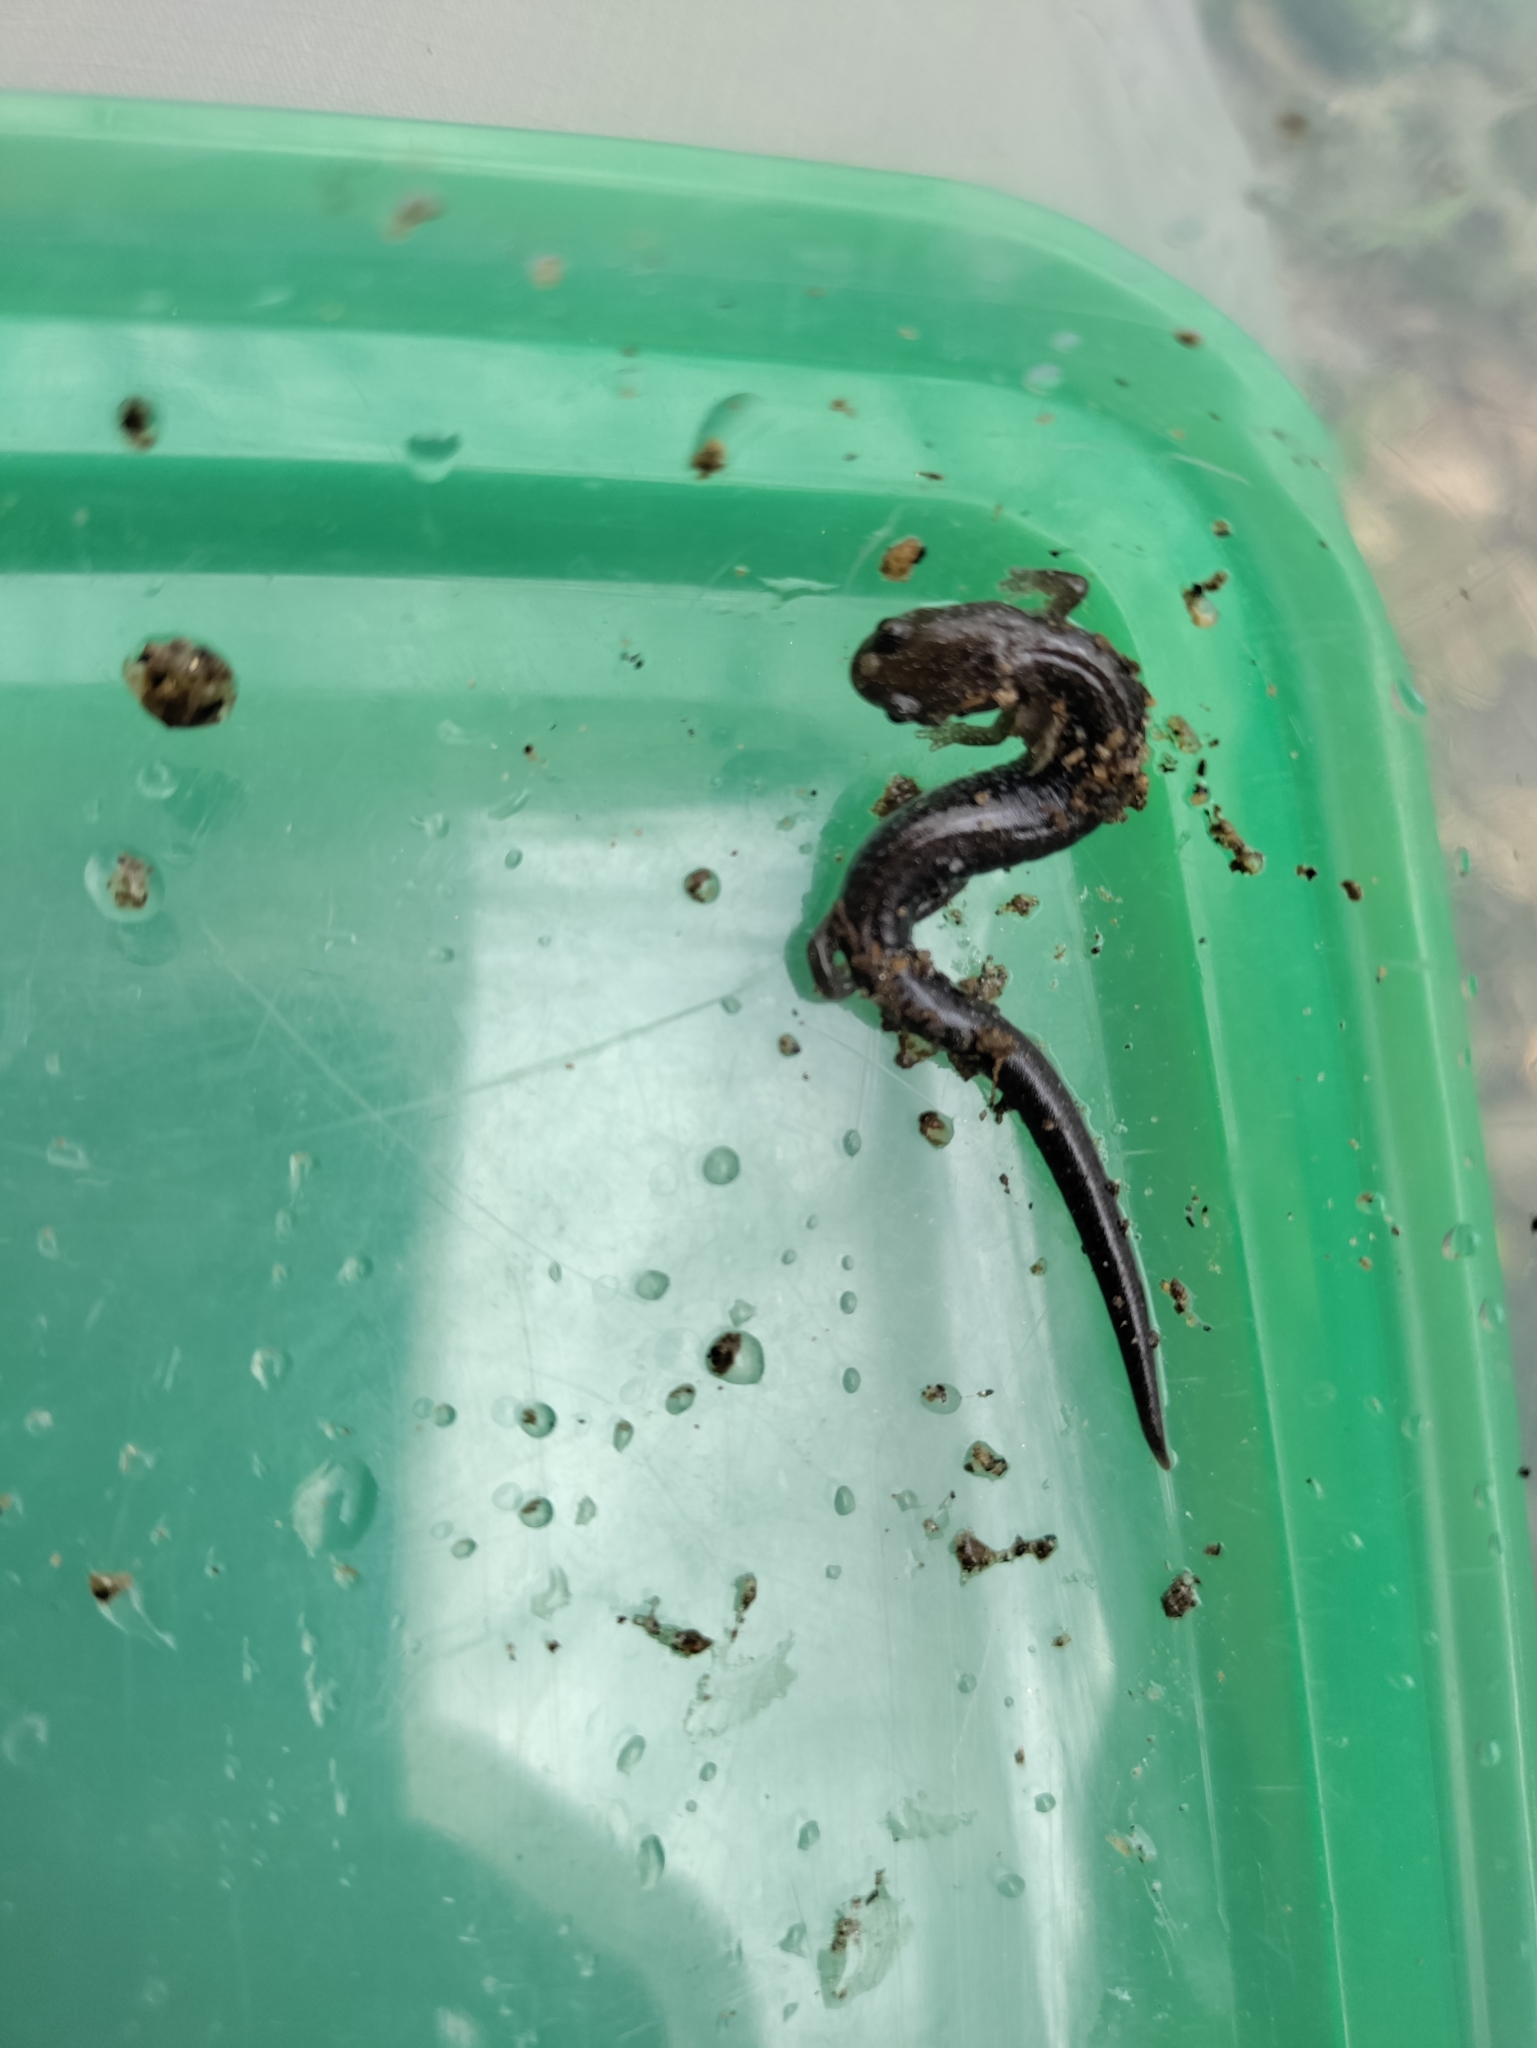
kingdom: Animalia
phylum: Chordata
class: Amphibia
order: Caudata
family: Plethodontidae
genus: Plethodon
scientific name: Plethodon cinereus
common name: Redback salamander
